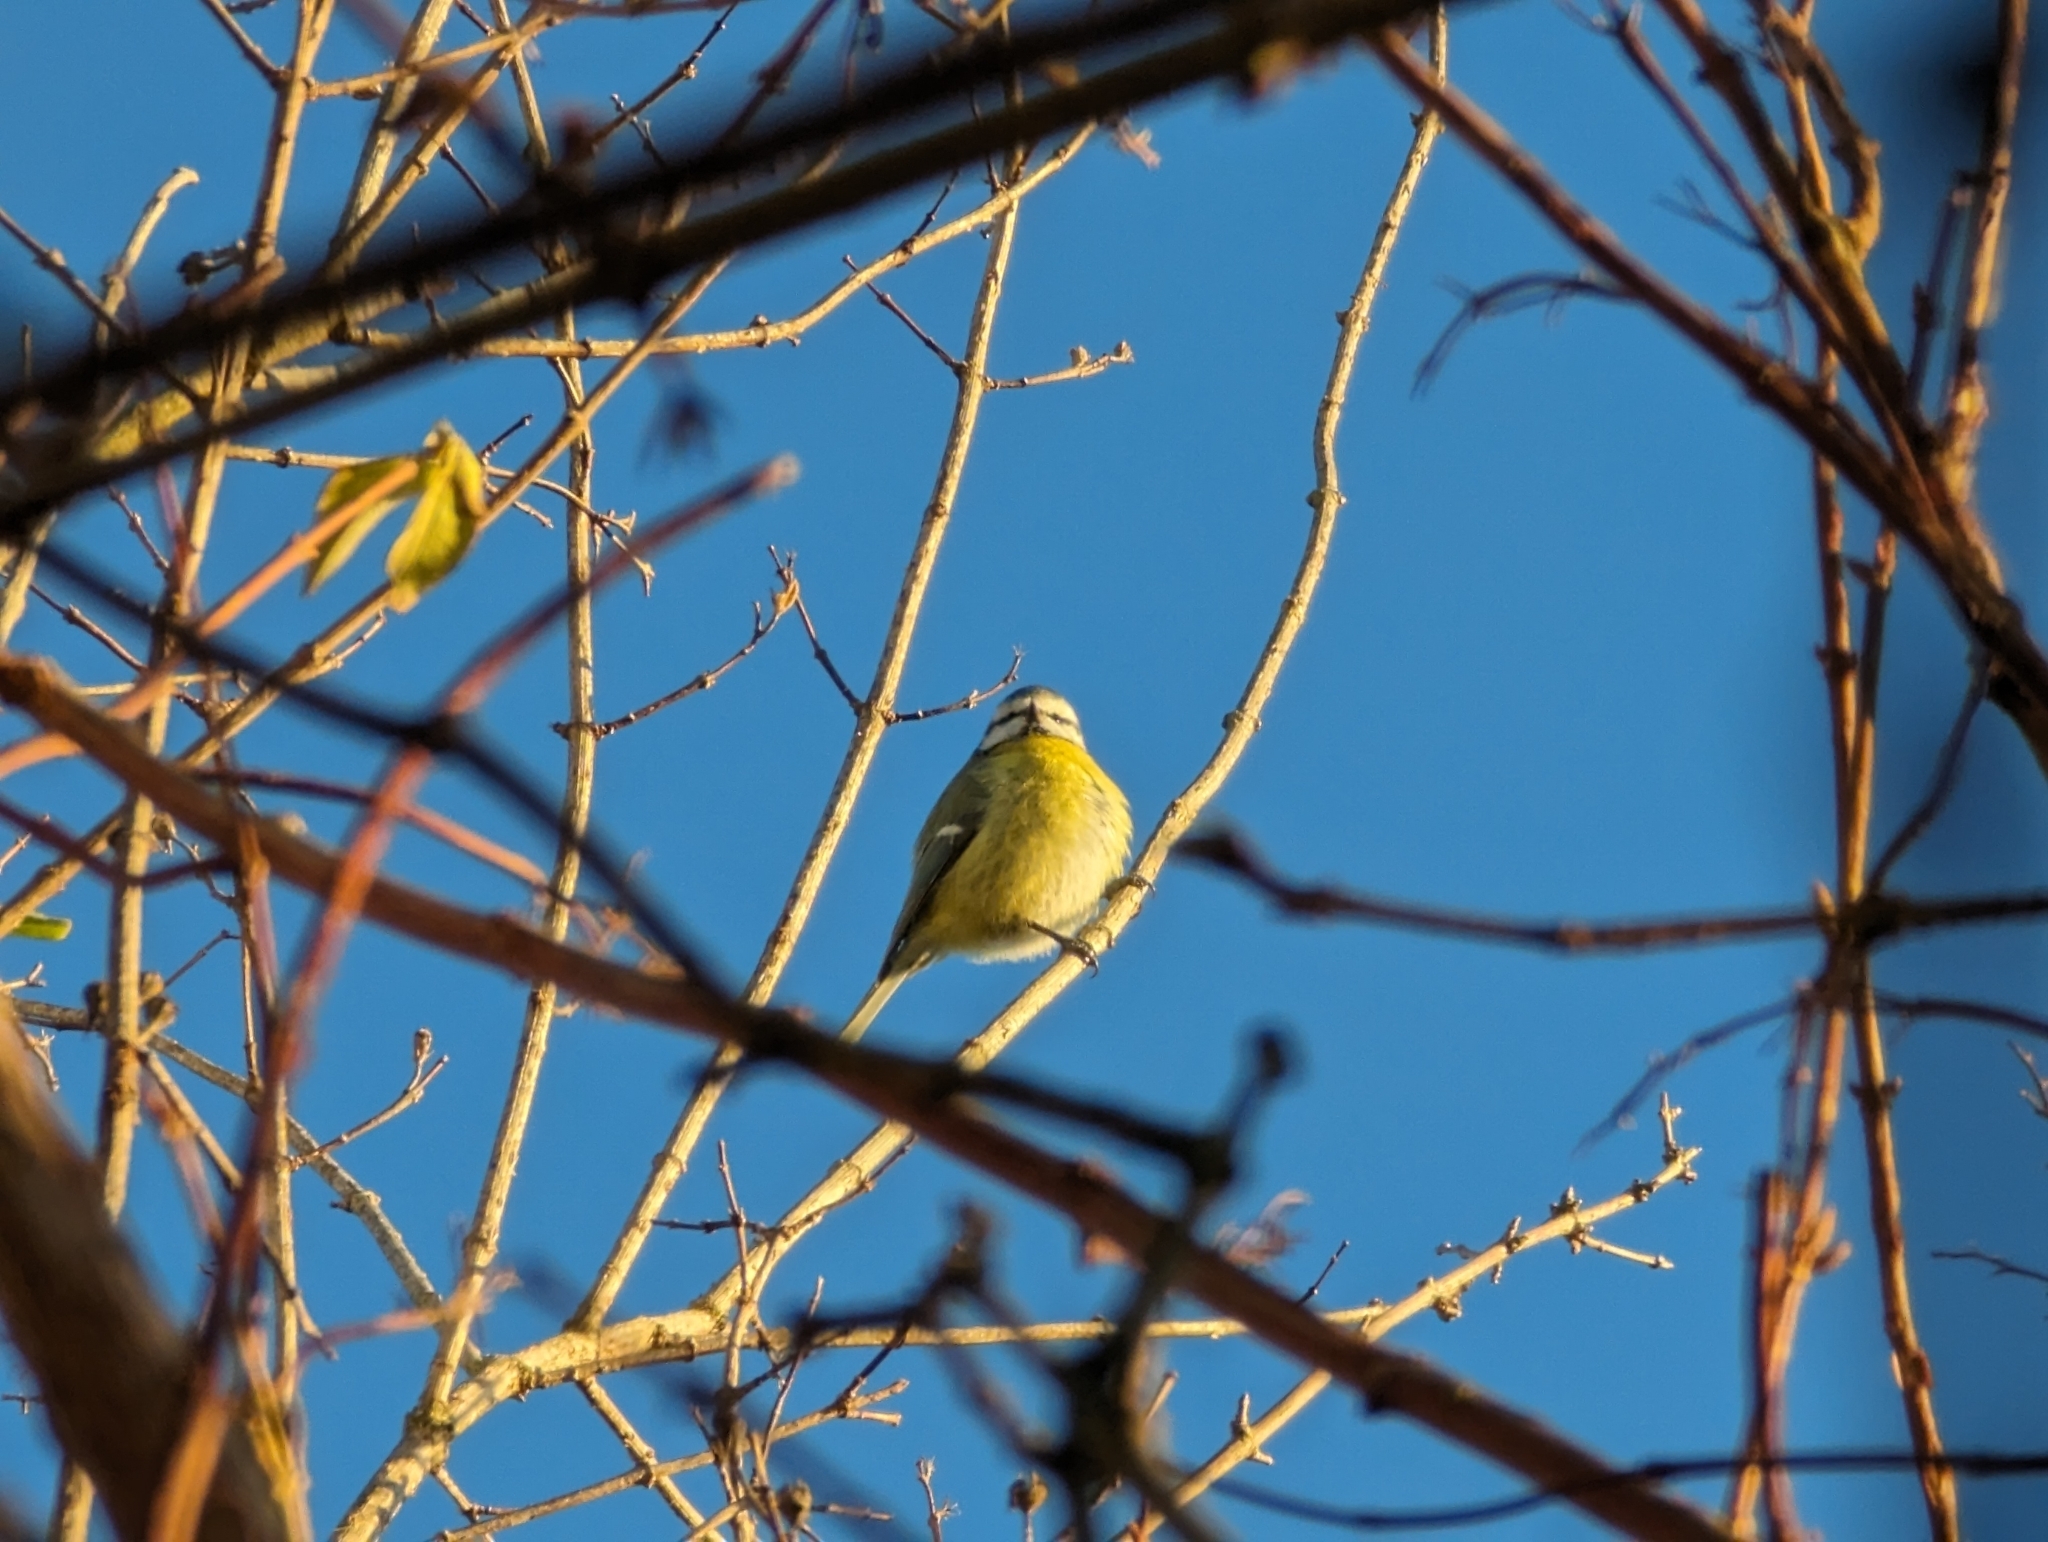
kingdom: Animalia
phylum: Chordata
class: Aves
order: Passeriformes
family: Paridae
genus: Cyanistes
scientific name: Cyanistes caeruleus
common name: Eurasian blue tit
